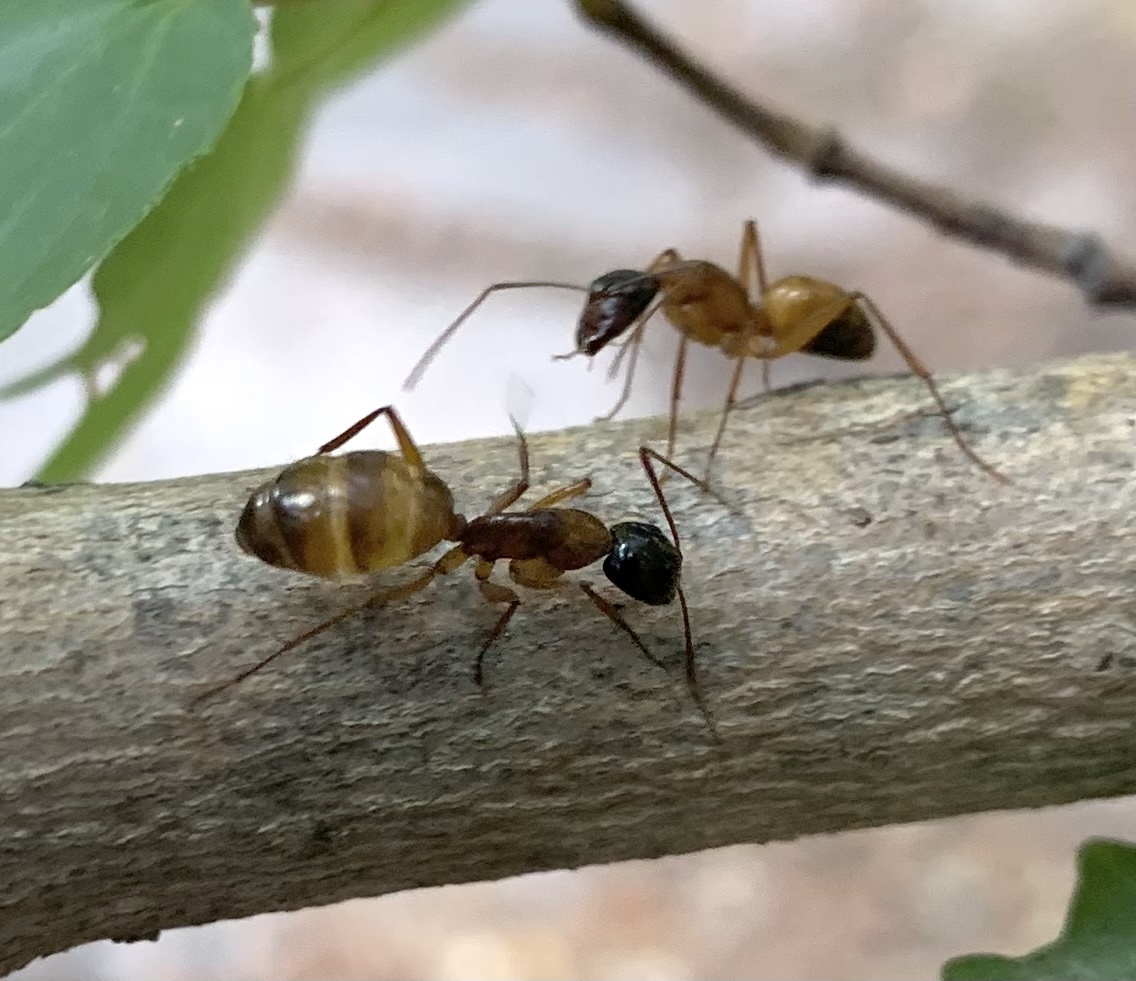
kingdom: Animalia
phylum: Arthropoda
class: Insecta
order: Hymenoptera
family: Formicidae
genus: Camponotus
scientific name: Camponotus americanus
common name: American carpenter ant
